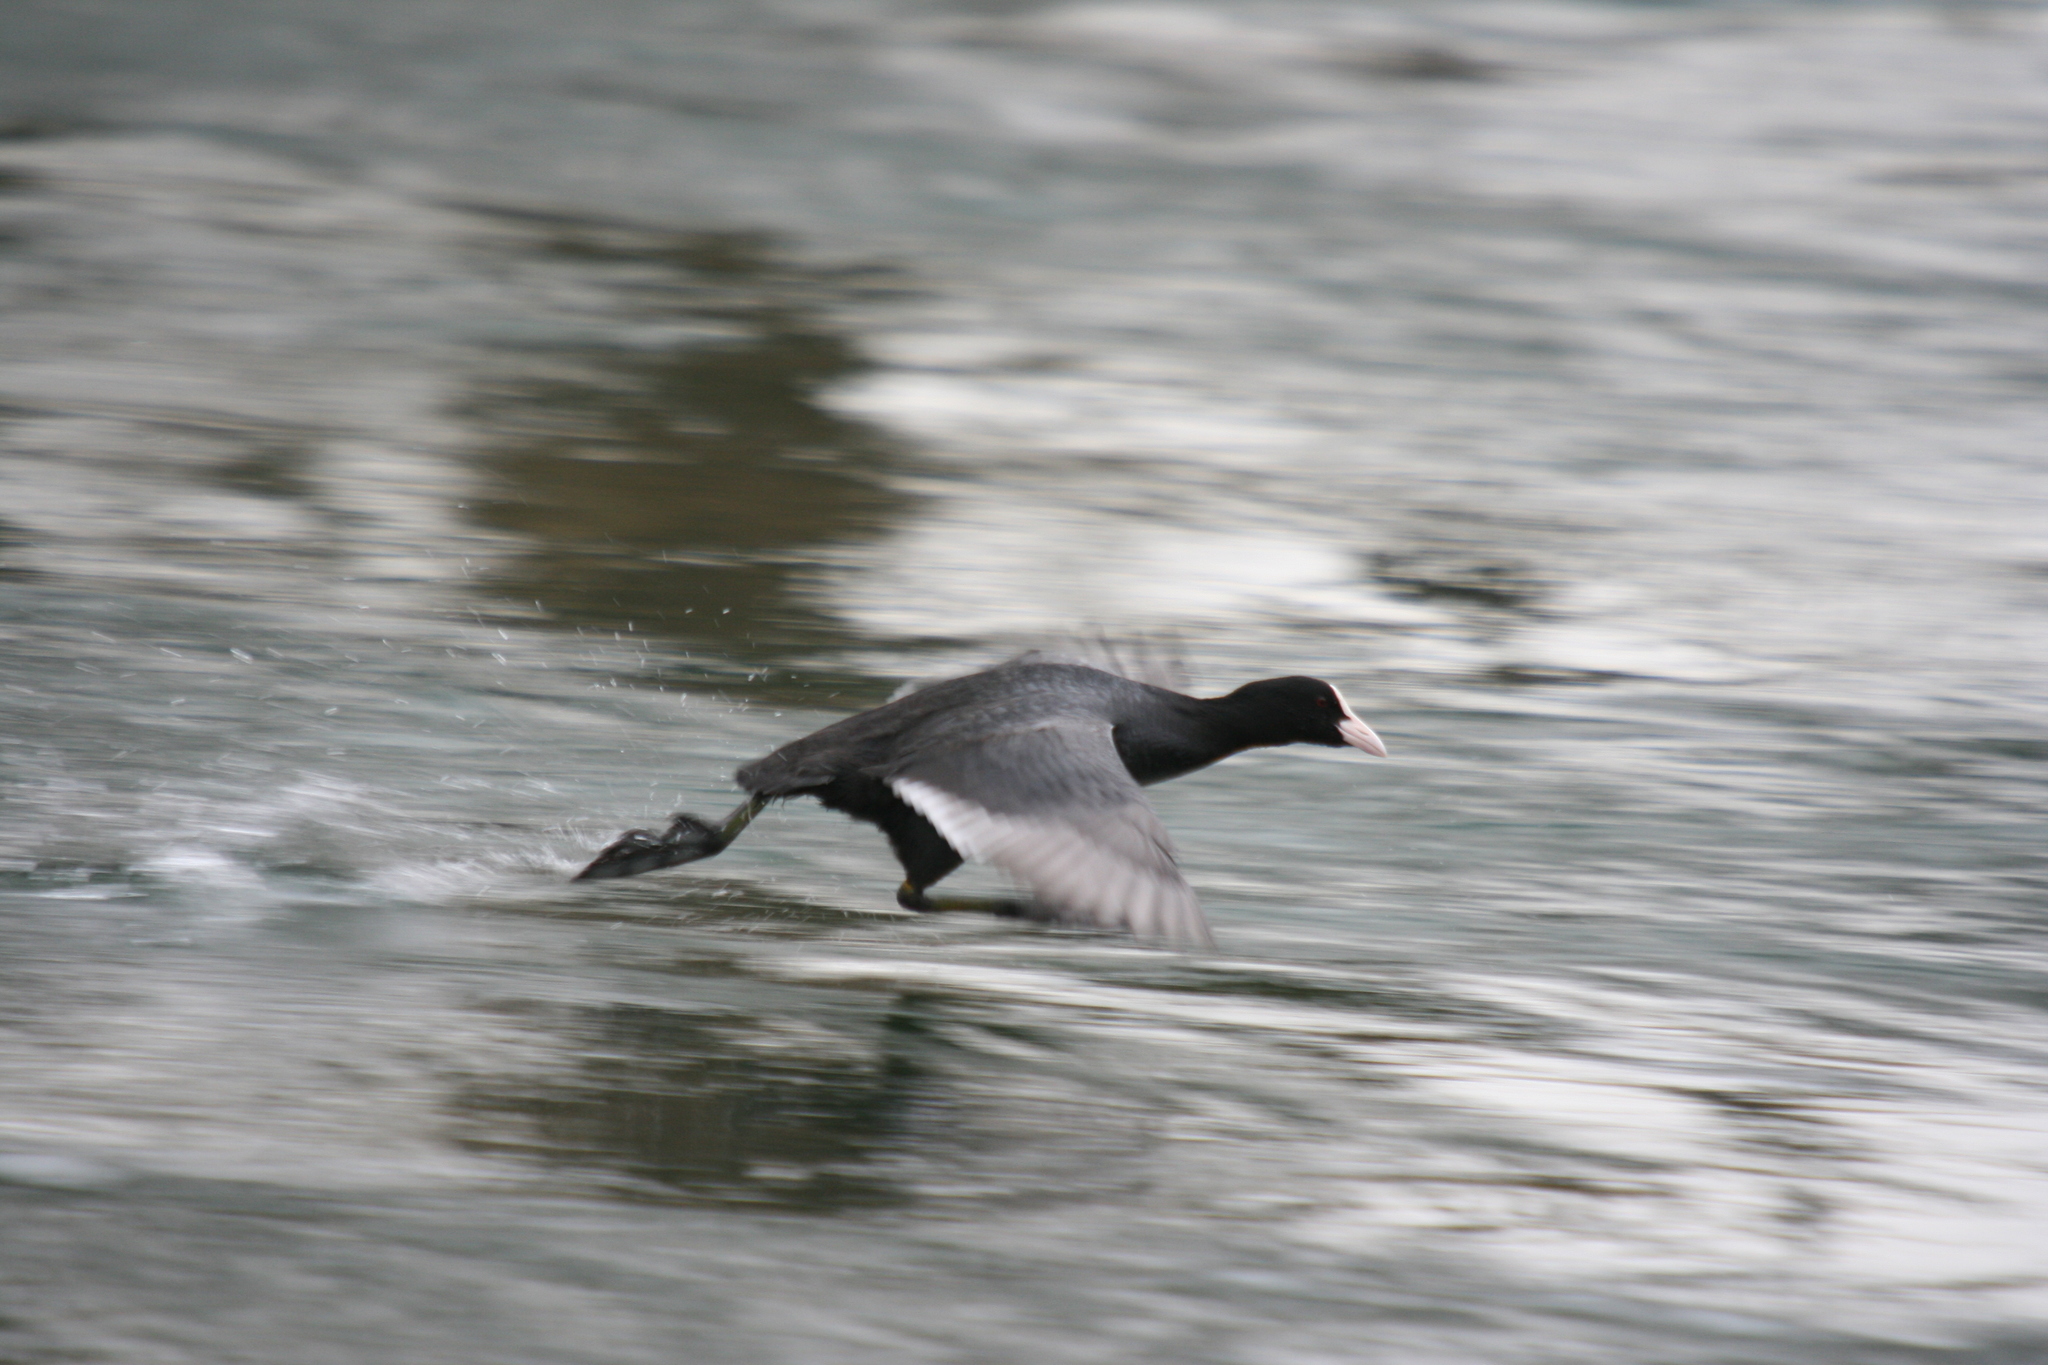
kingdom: Animalia
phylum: Chordata
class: Aves
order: Gruiformes
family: Rallidae
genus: Fulica
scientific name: Fulica atra
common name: Eurasian coot
